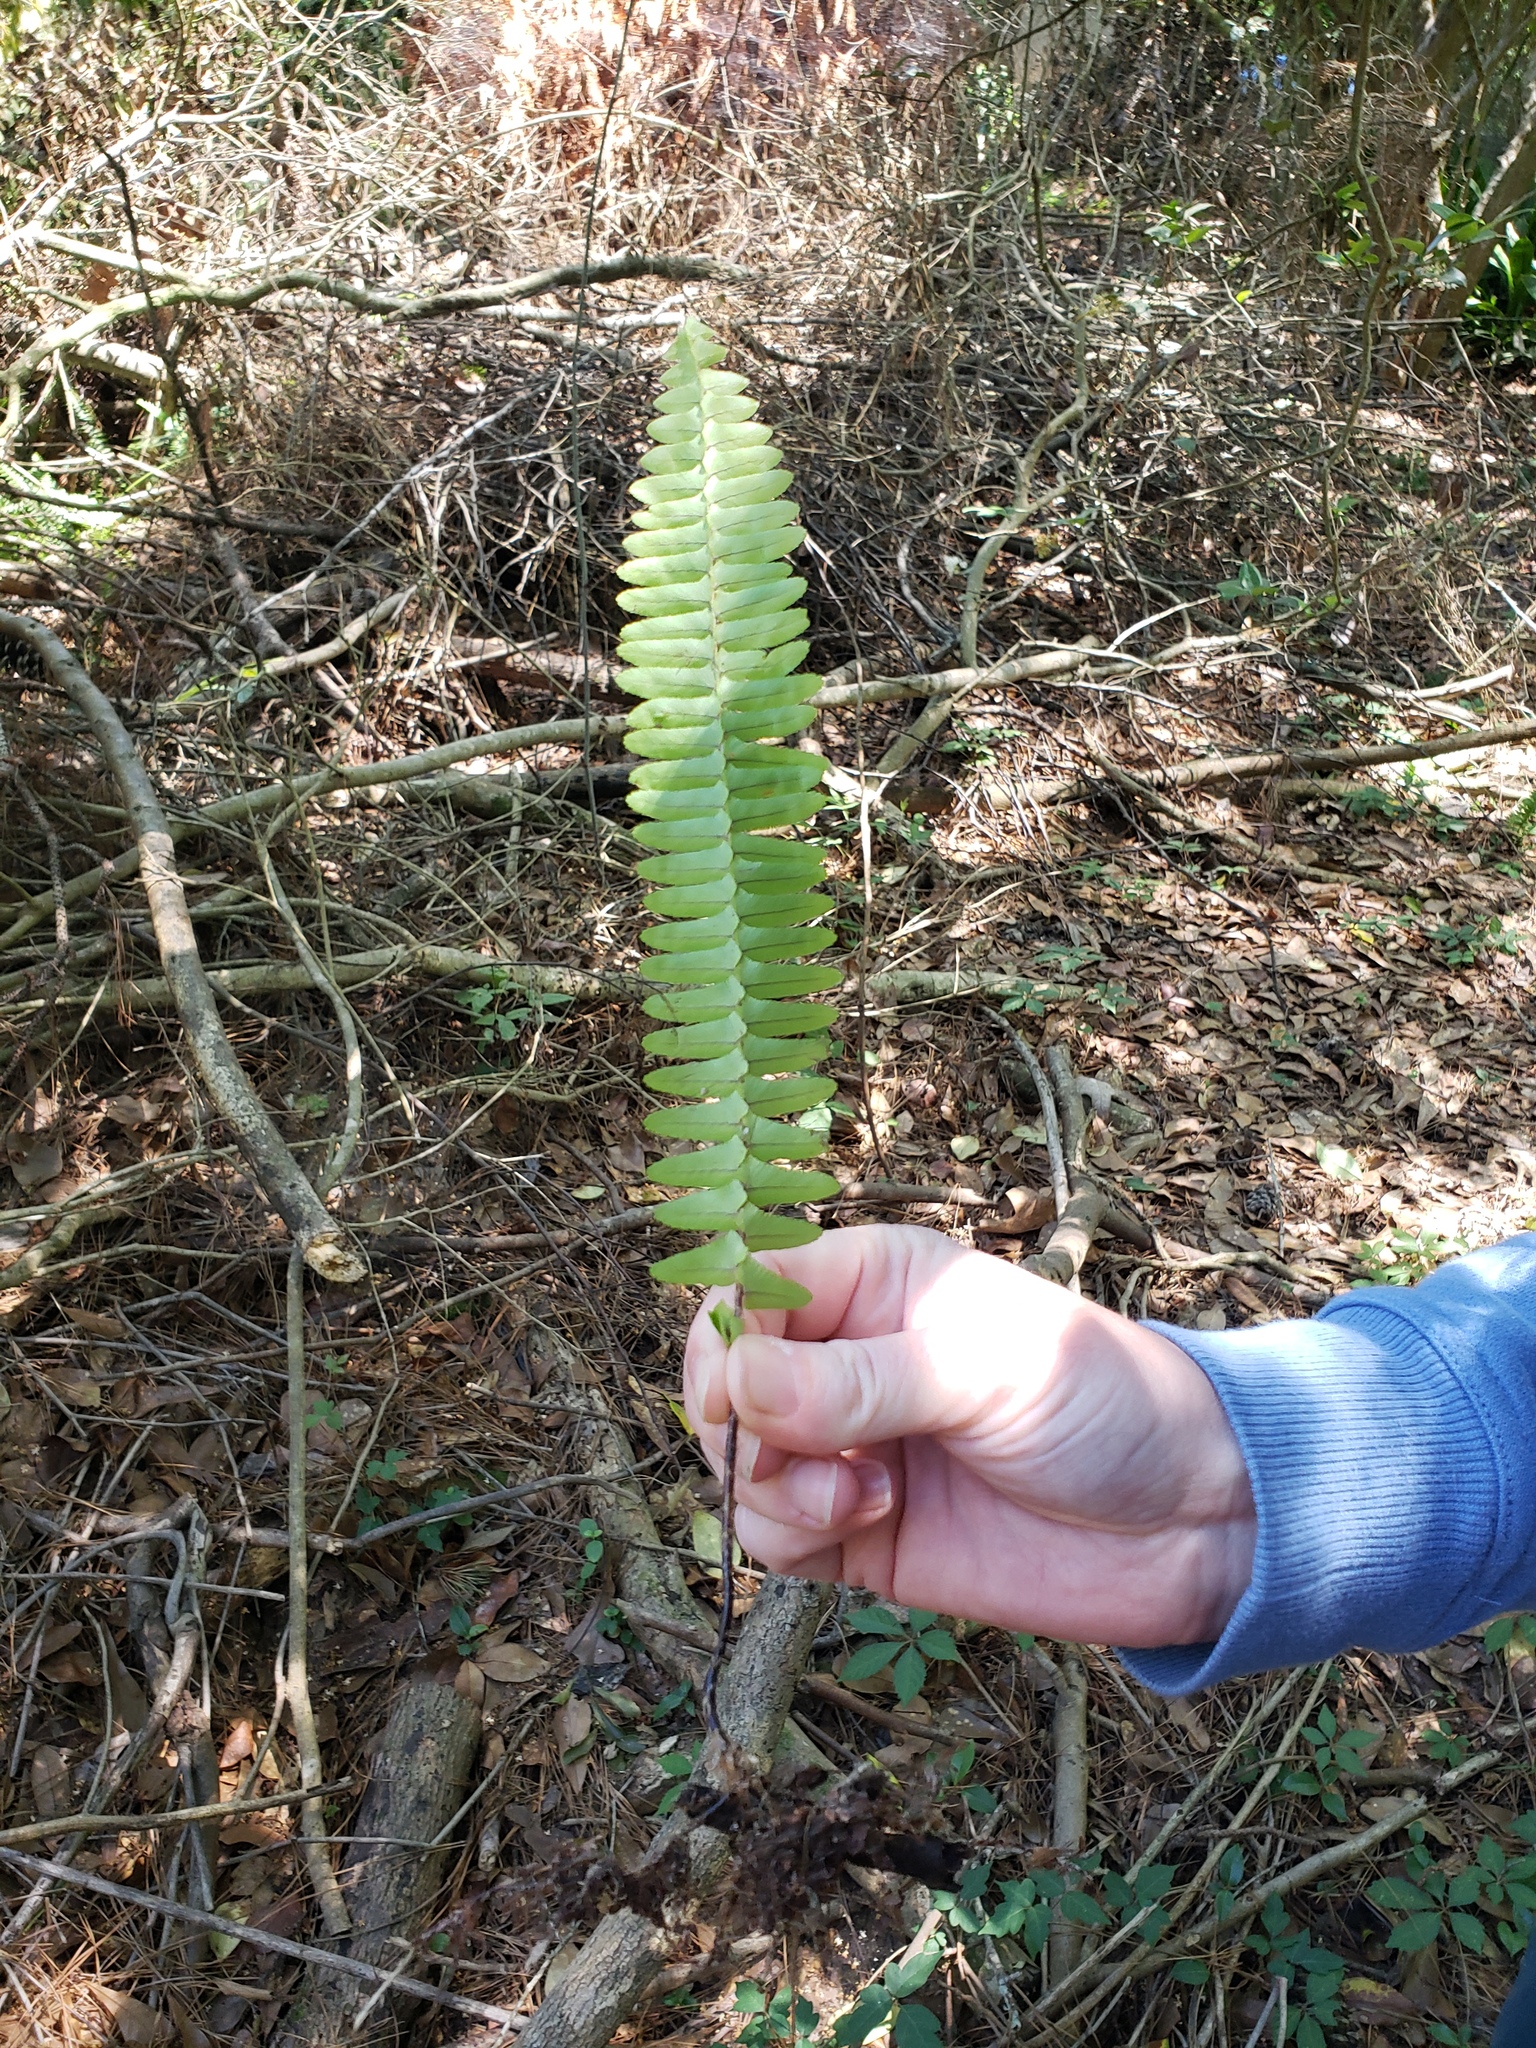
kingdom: Plantae
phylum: Tracheophyta
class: Polypodiopsida
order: Polypodiales
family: Nephrolepidaceae
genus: Nephrolepis
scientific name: Nephrolepis cordifolia
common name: Narrow swordfern
